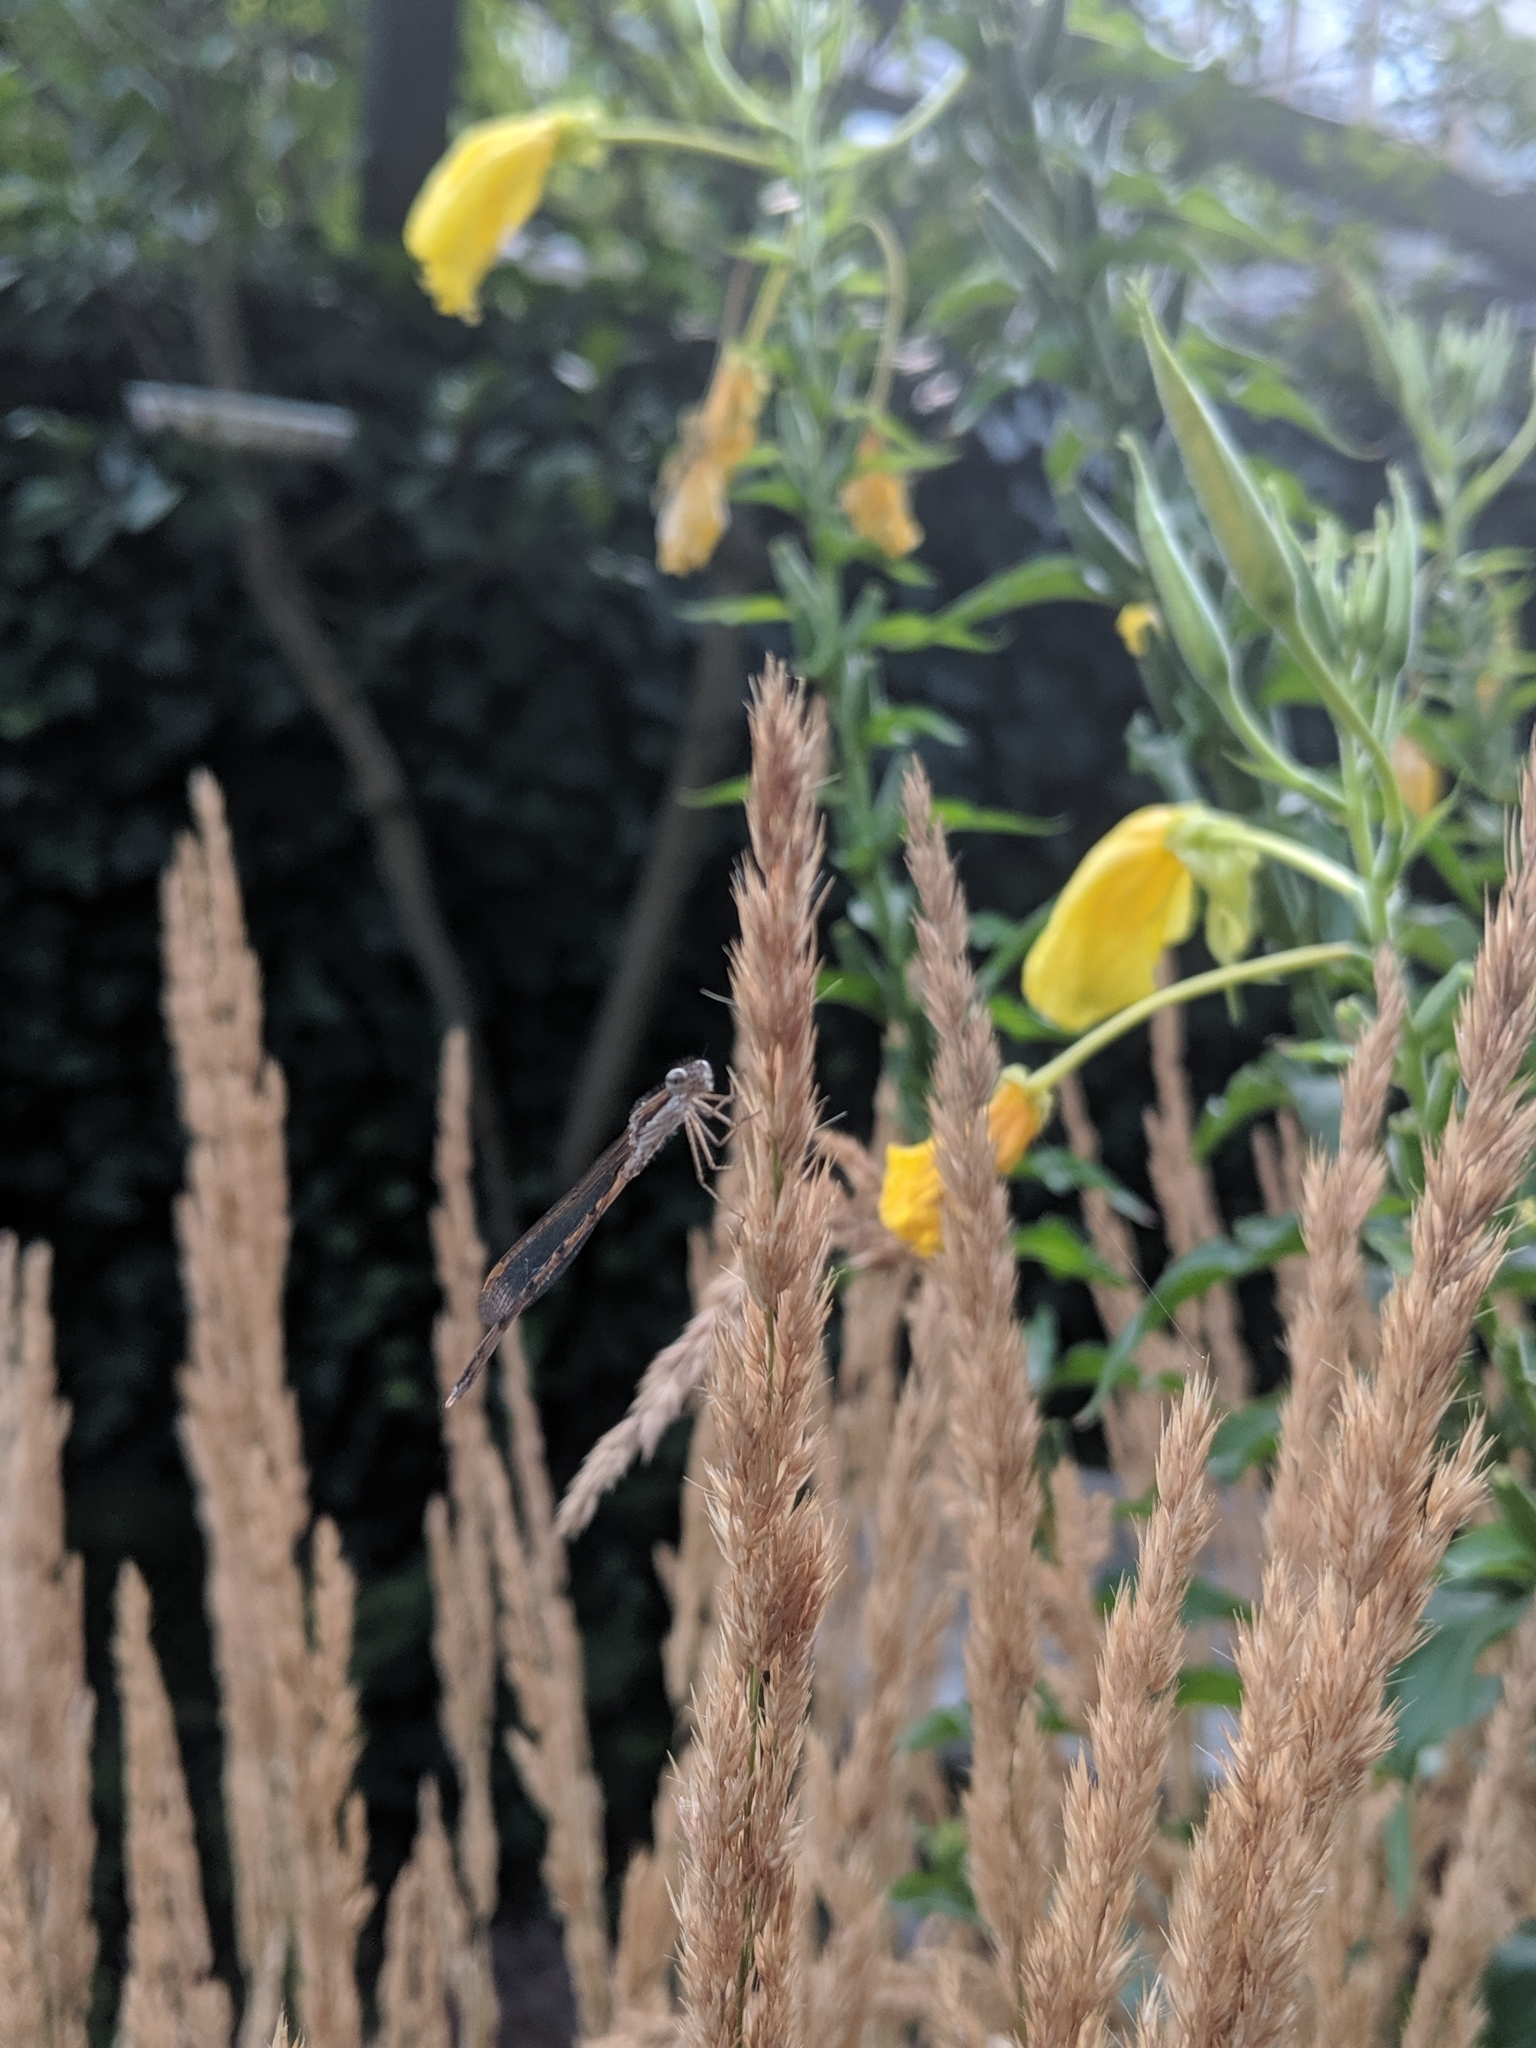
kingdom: Animalia
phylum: Arthropoda
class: Insecta
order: Odonata
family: Lestidae
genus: Sympecma
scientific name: Sympecma fusca
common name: Common winter damsel
